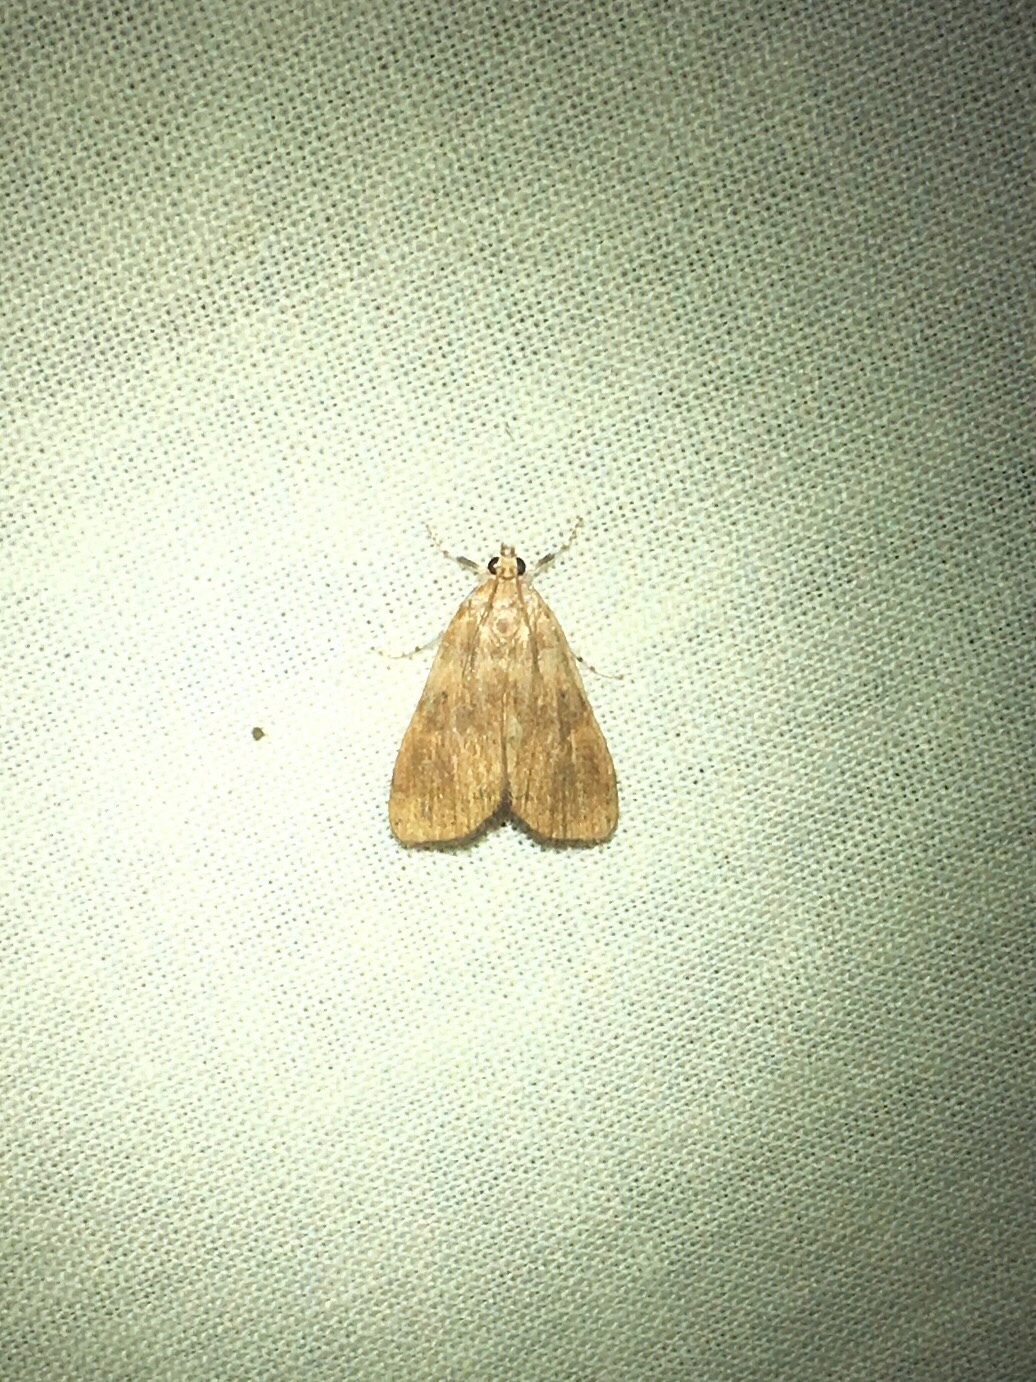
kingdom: Animalia
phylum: Arthropoda
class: Insecta
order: Lepidoptera
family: Crambidae
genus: Elophila
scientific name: Elophila gyralis
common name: Waterlily borer moth
